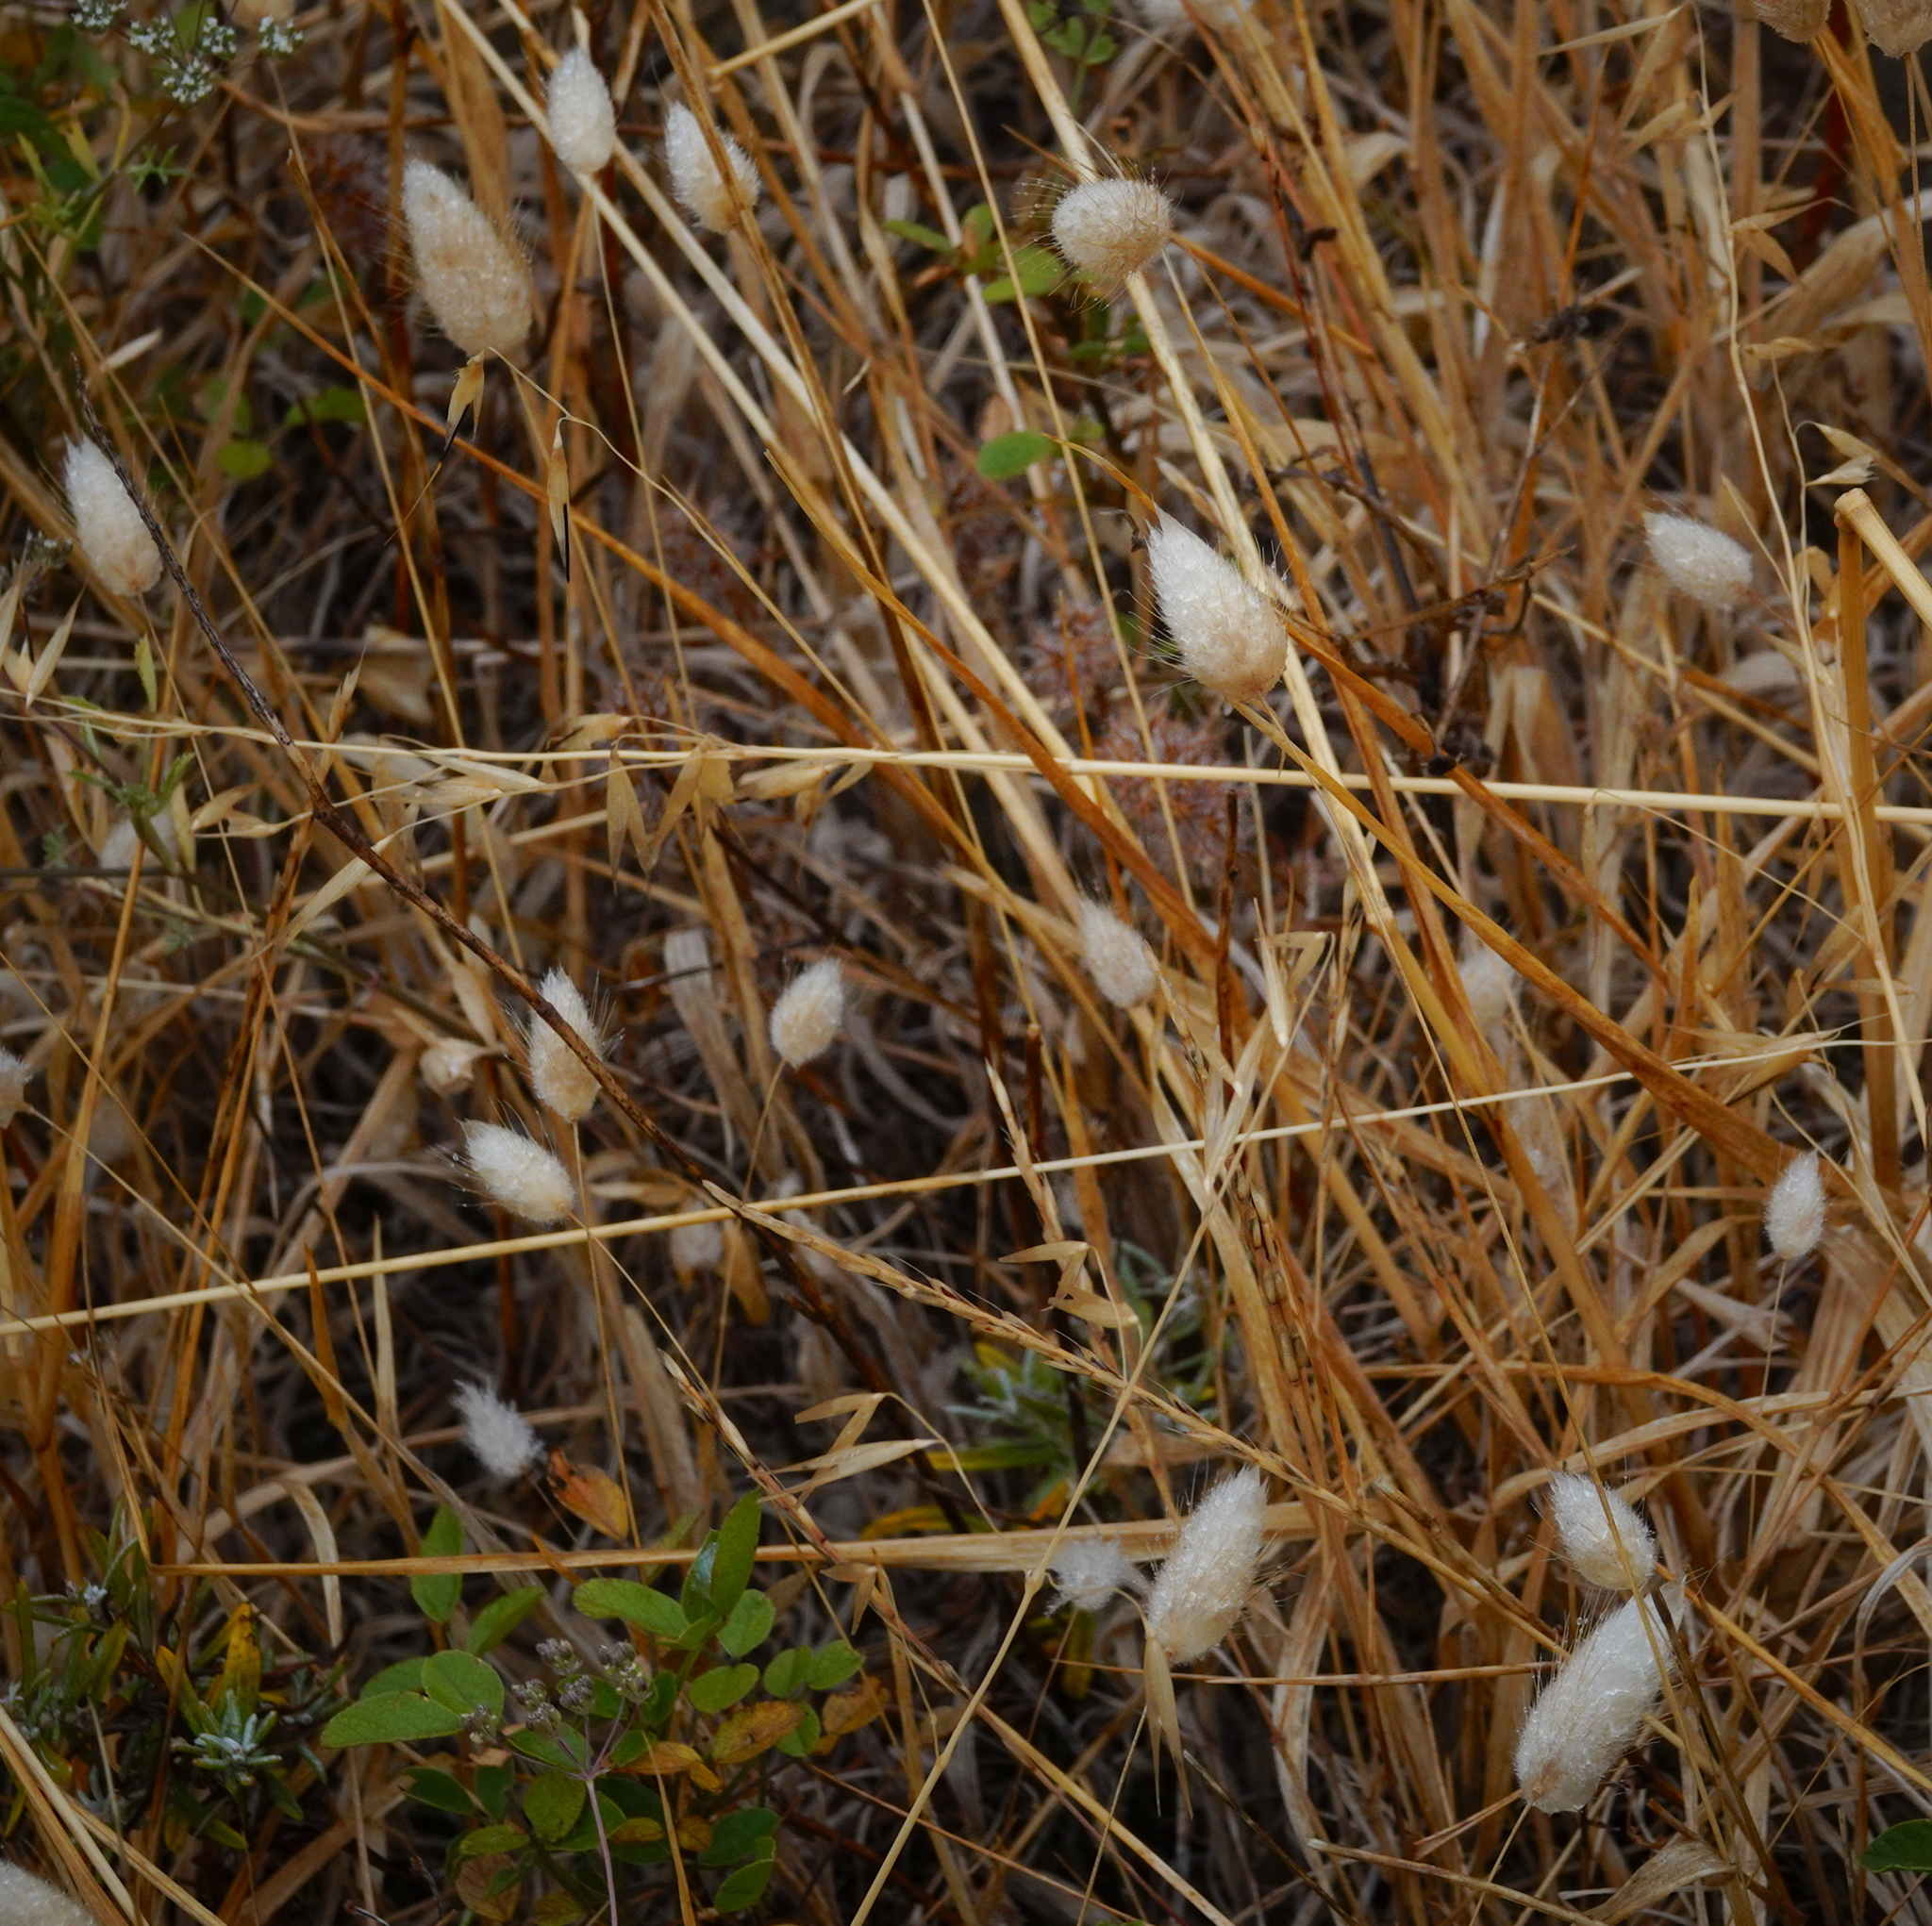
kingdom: Plantae
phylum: Tracheophyta
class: Liliopsida
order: Poales
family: Poaceae
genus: Lagurus
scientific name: Lagurus ovatus
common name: Hare's-tail
